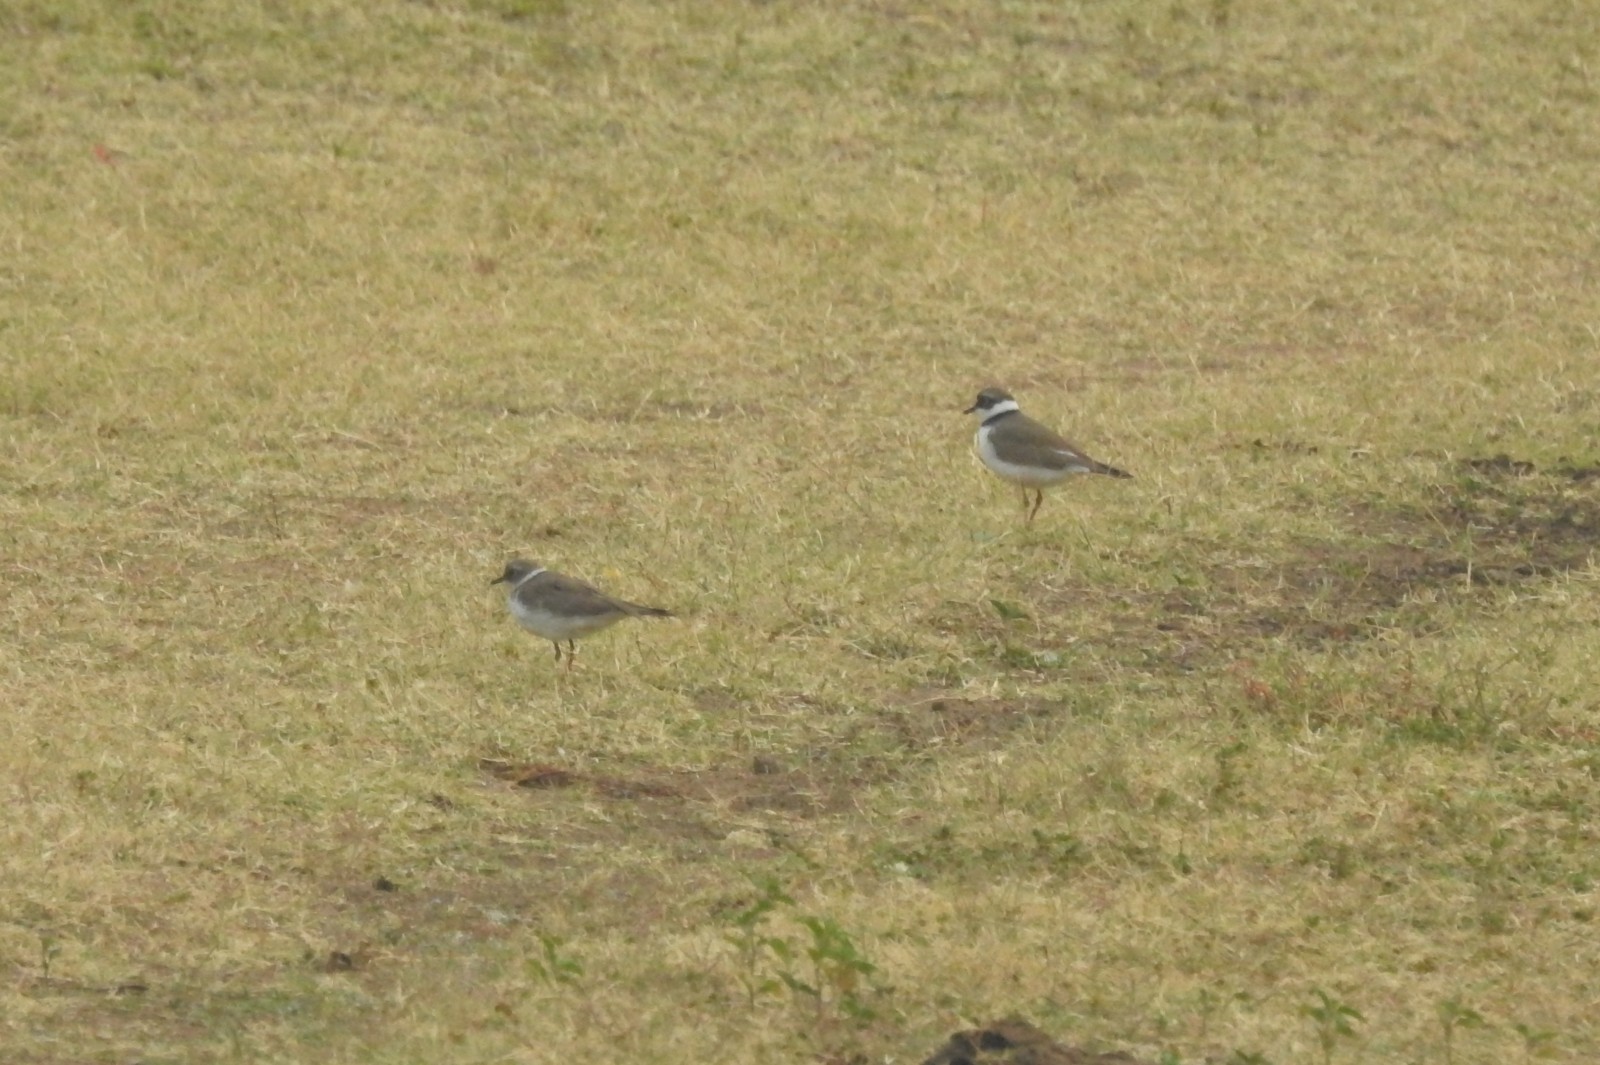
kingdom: Animalia
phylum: Chordata
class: Aves
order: Charadriiformes
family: Charadriidae
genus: Charadrius
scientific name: Charadrius dubius
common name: Little ringed plover
